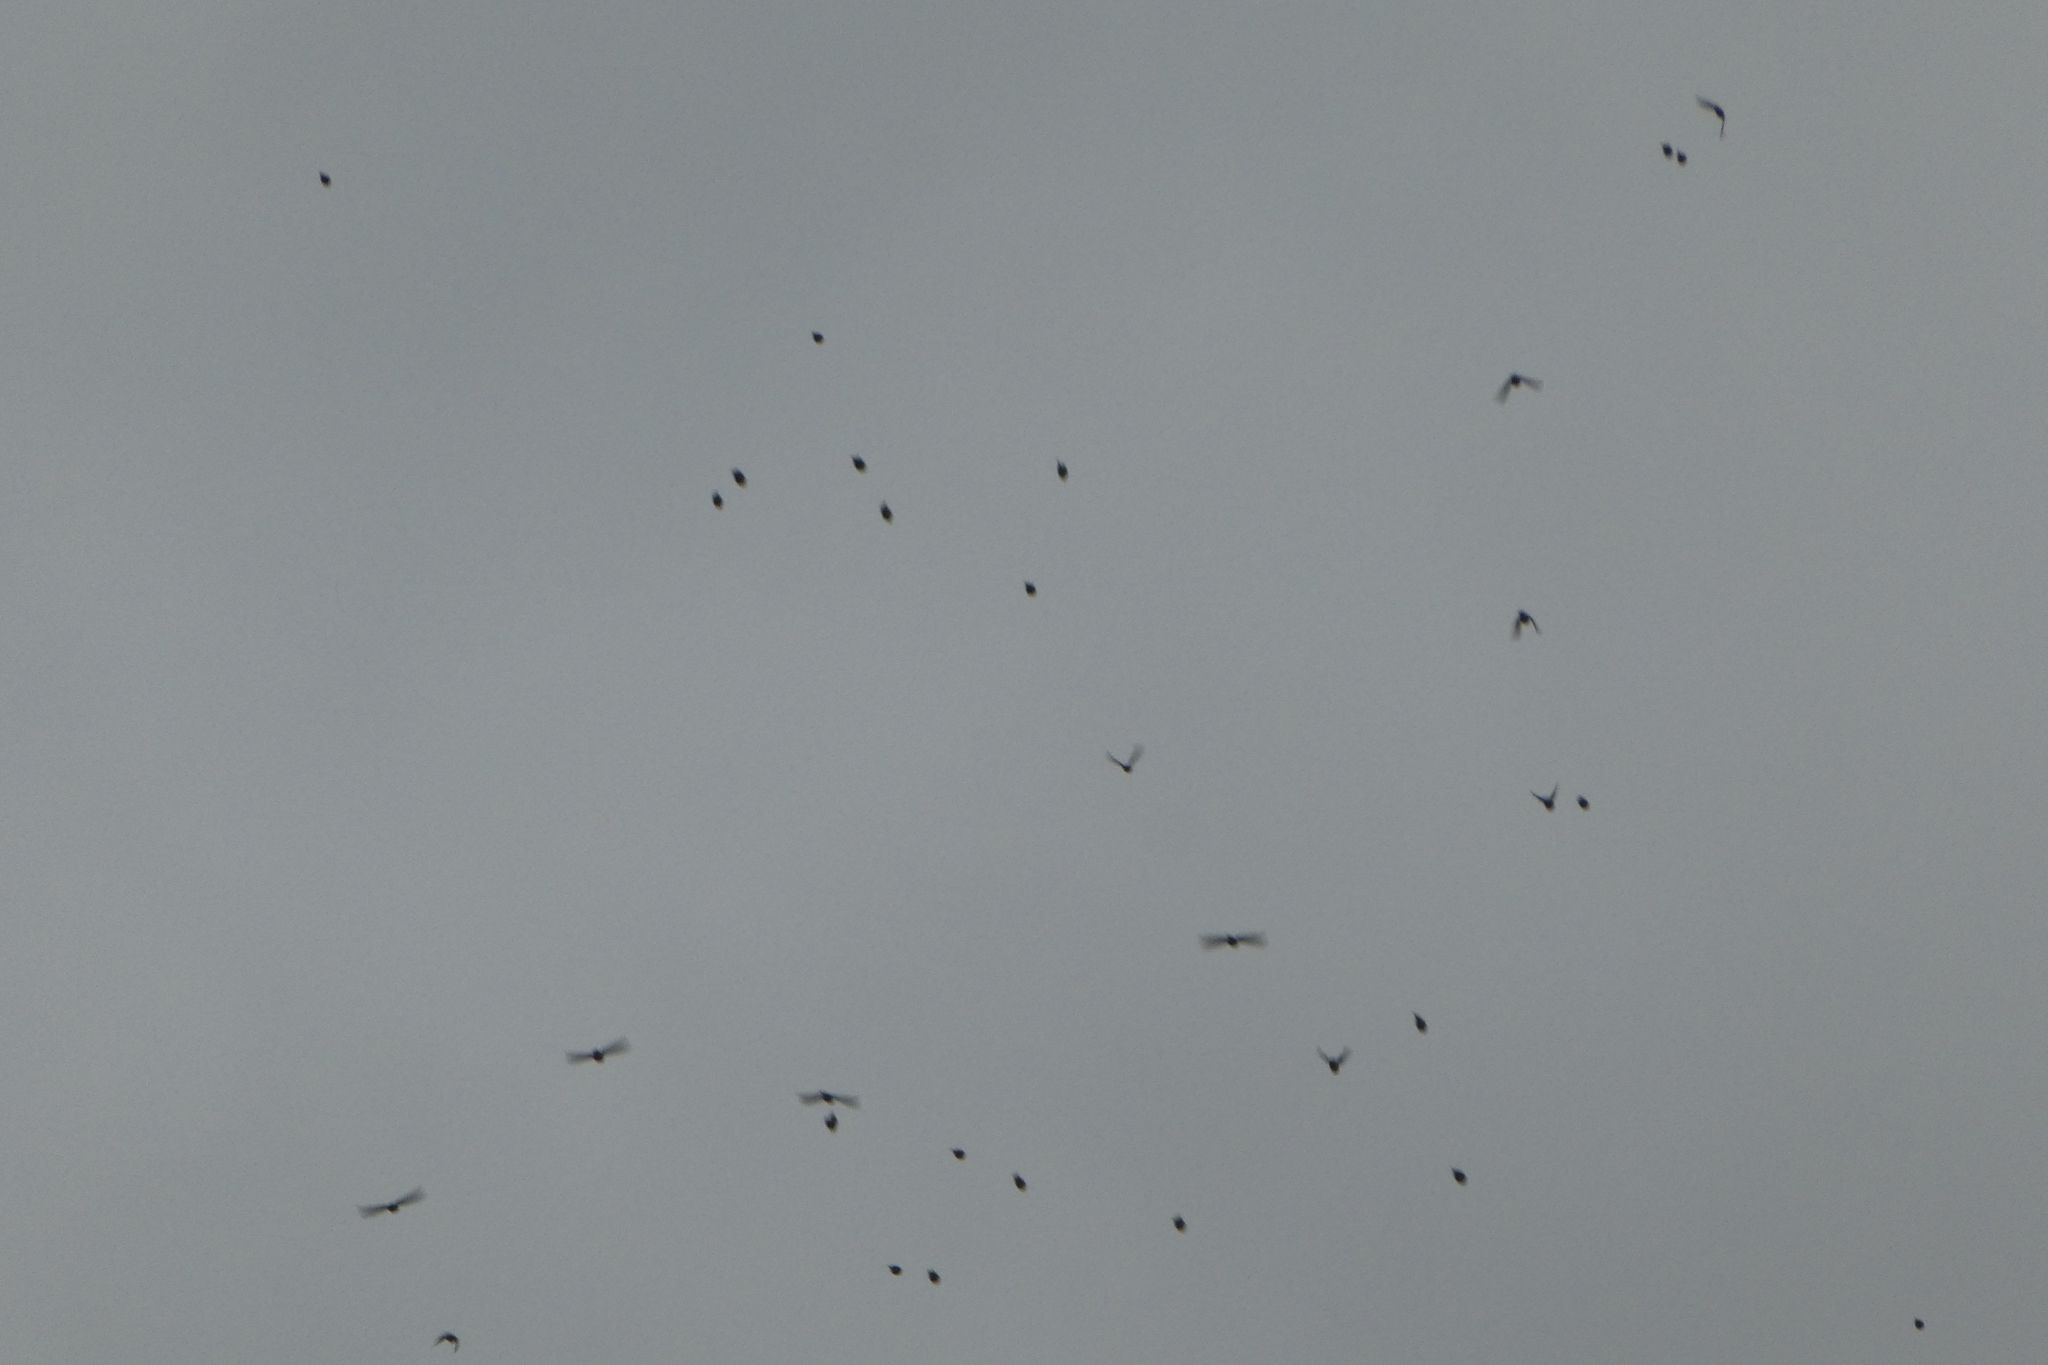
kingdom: Animalia
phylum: Chordata
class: Aves
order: Passeriformes
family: Fringillidae
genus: Spinus
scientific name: Spinus pinus
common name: Pine siskin
